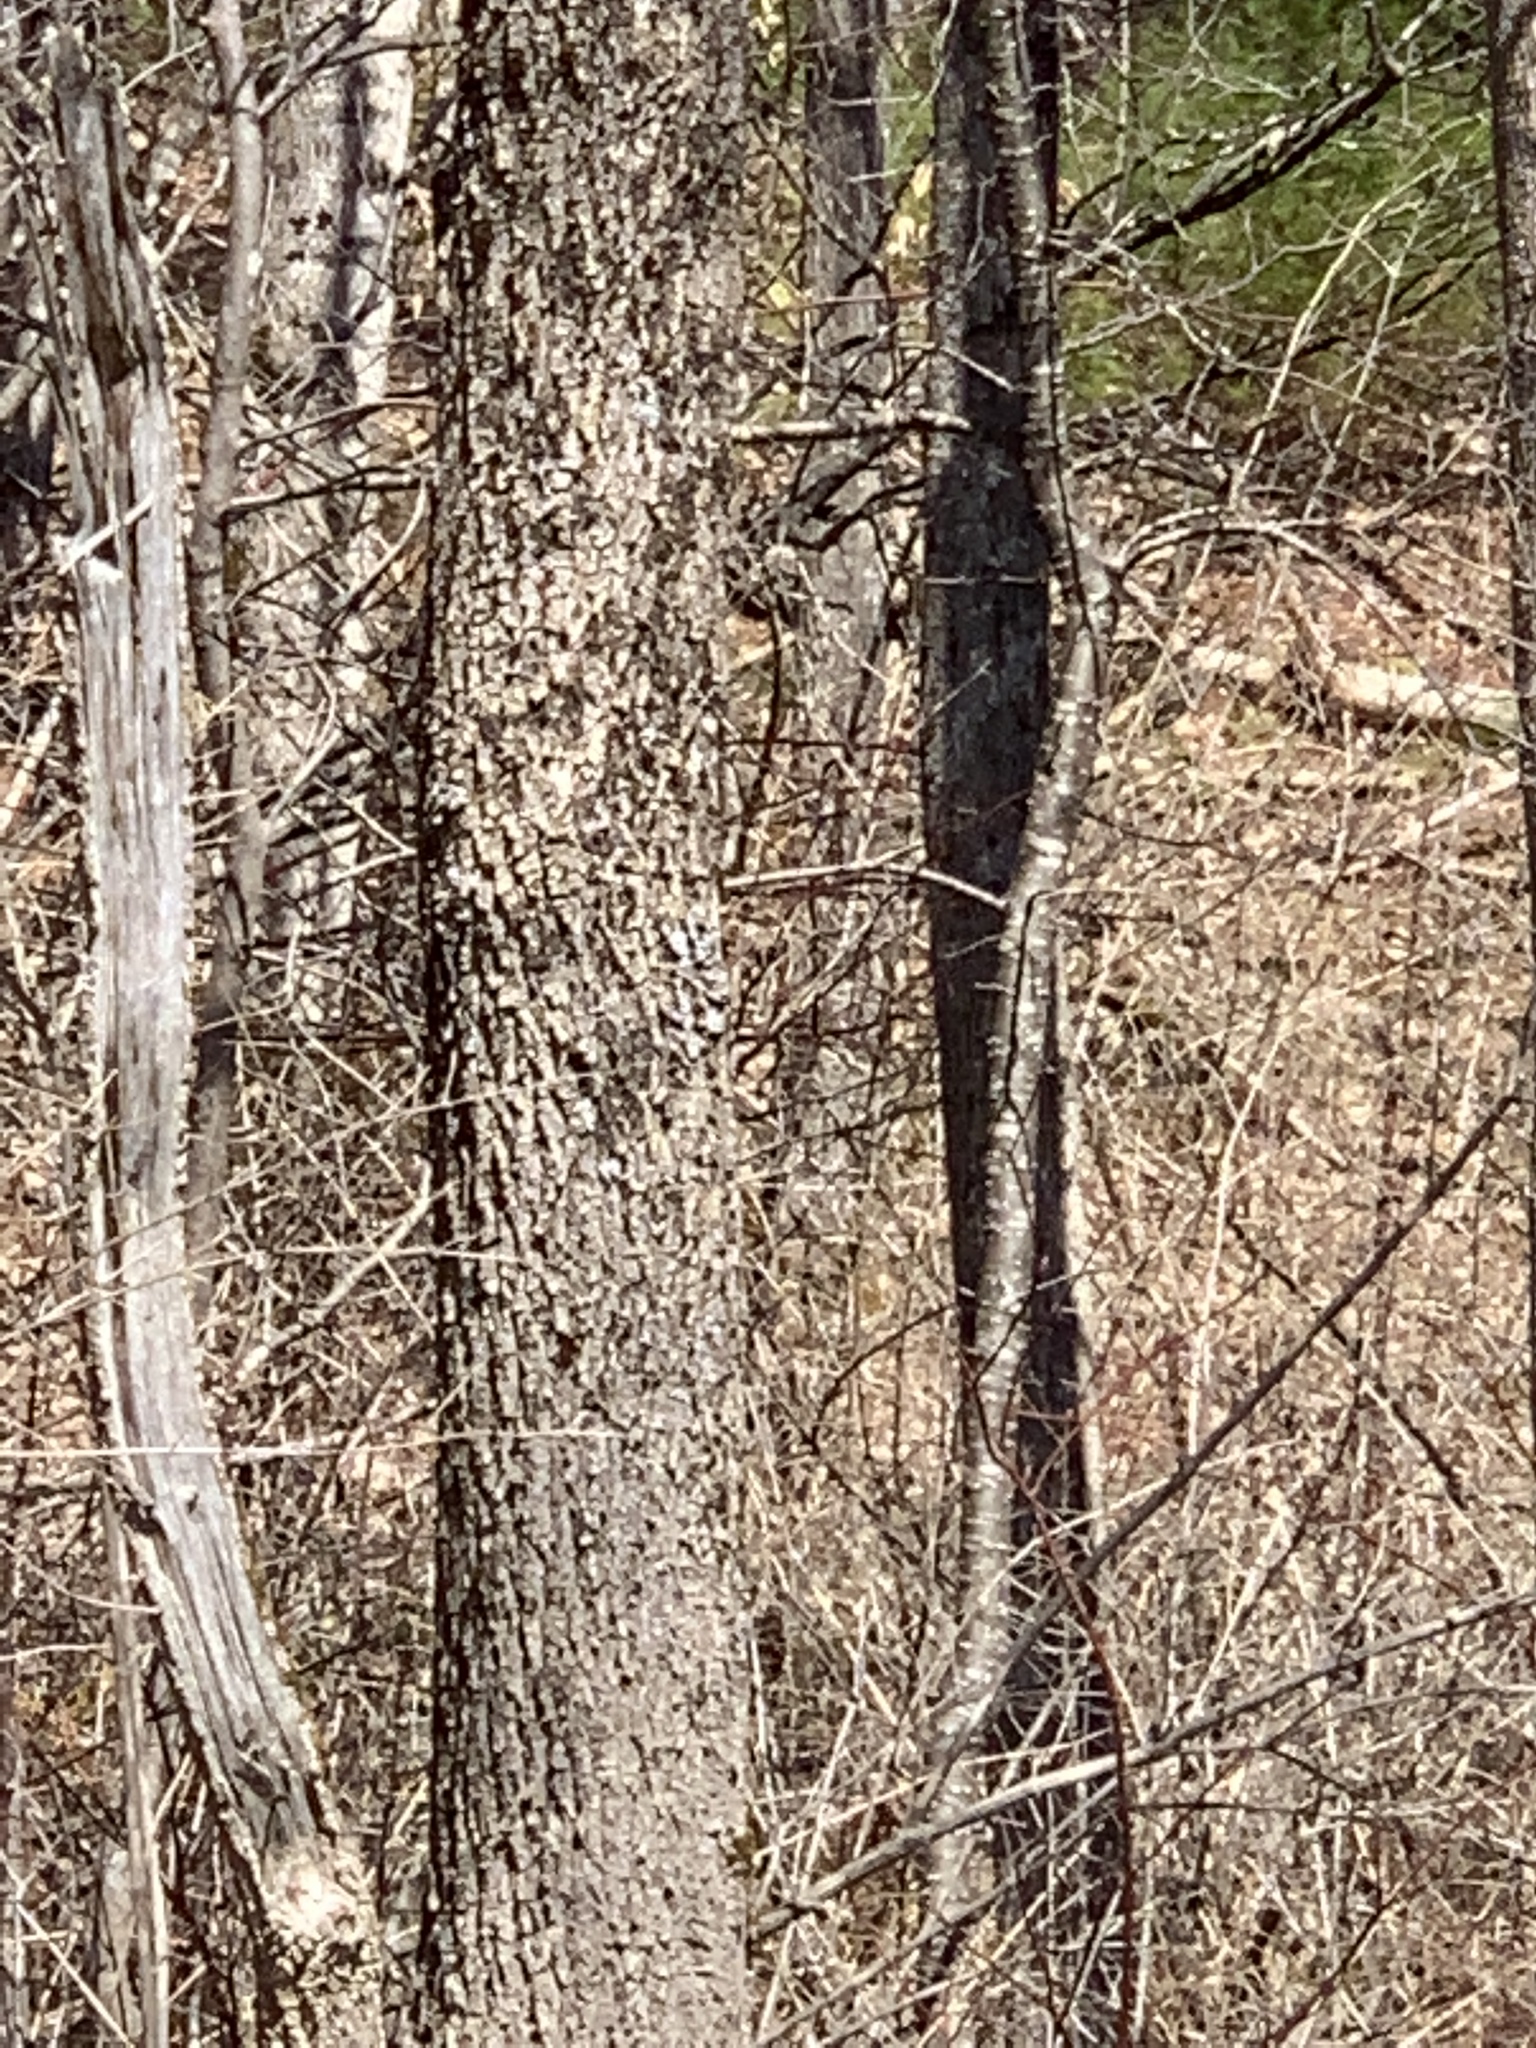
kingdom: Plantae
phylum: Tracheophyta
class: Magnoliopsida
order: Lamiales
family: Oleaceae
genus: Fraxinus
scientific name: Fraxinus nigra
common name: Black ash
